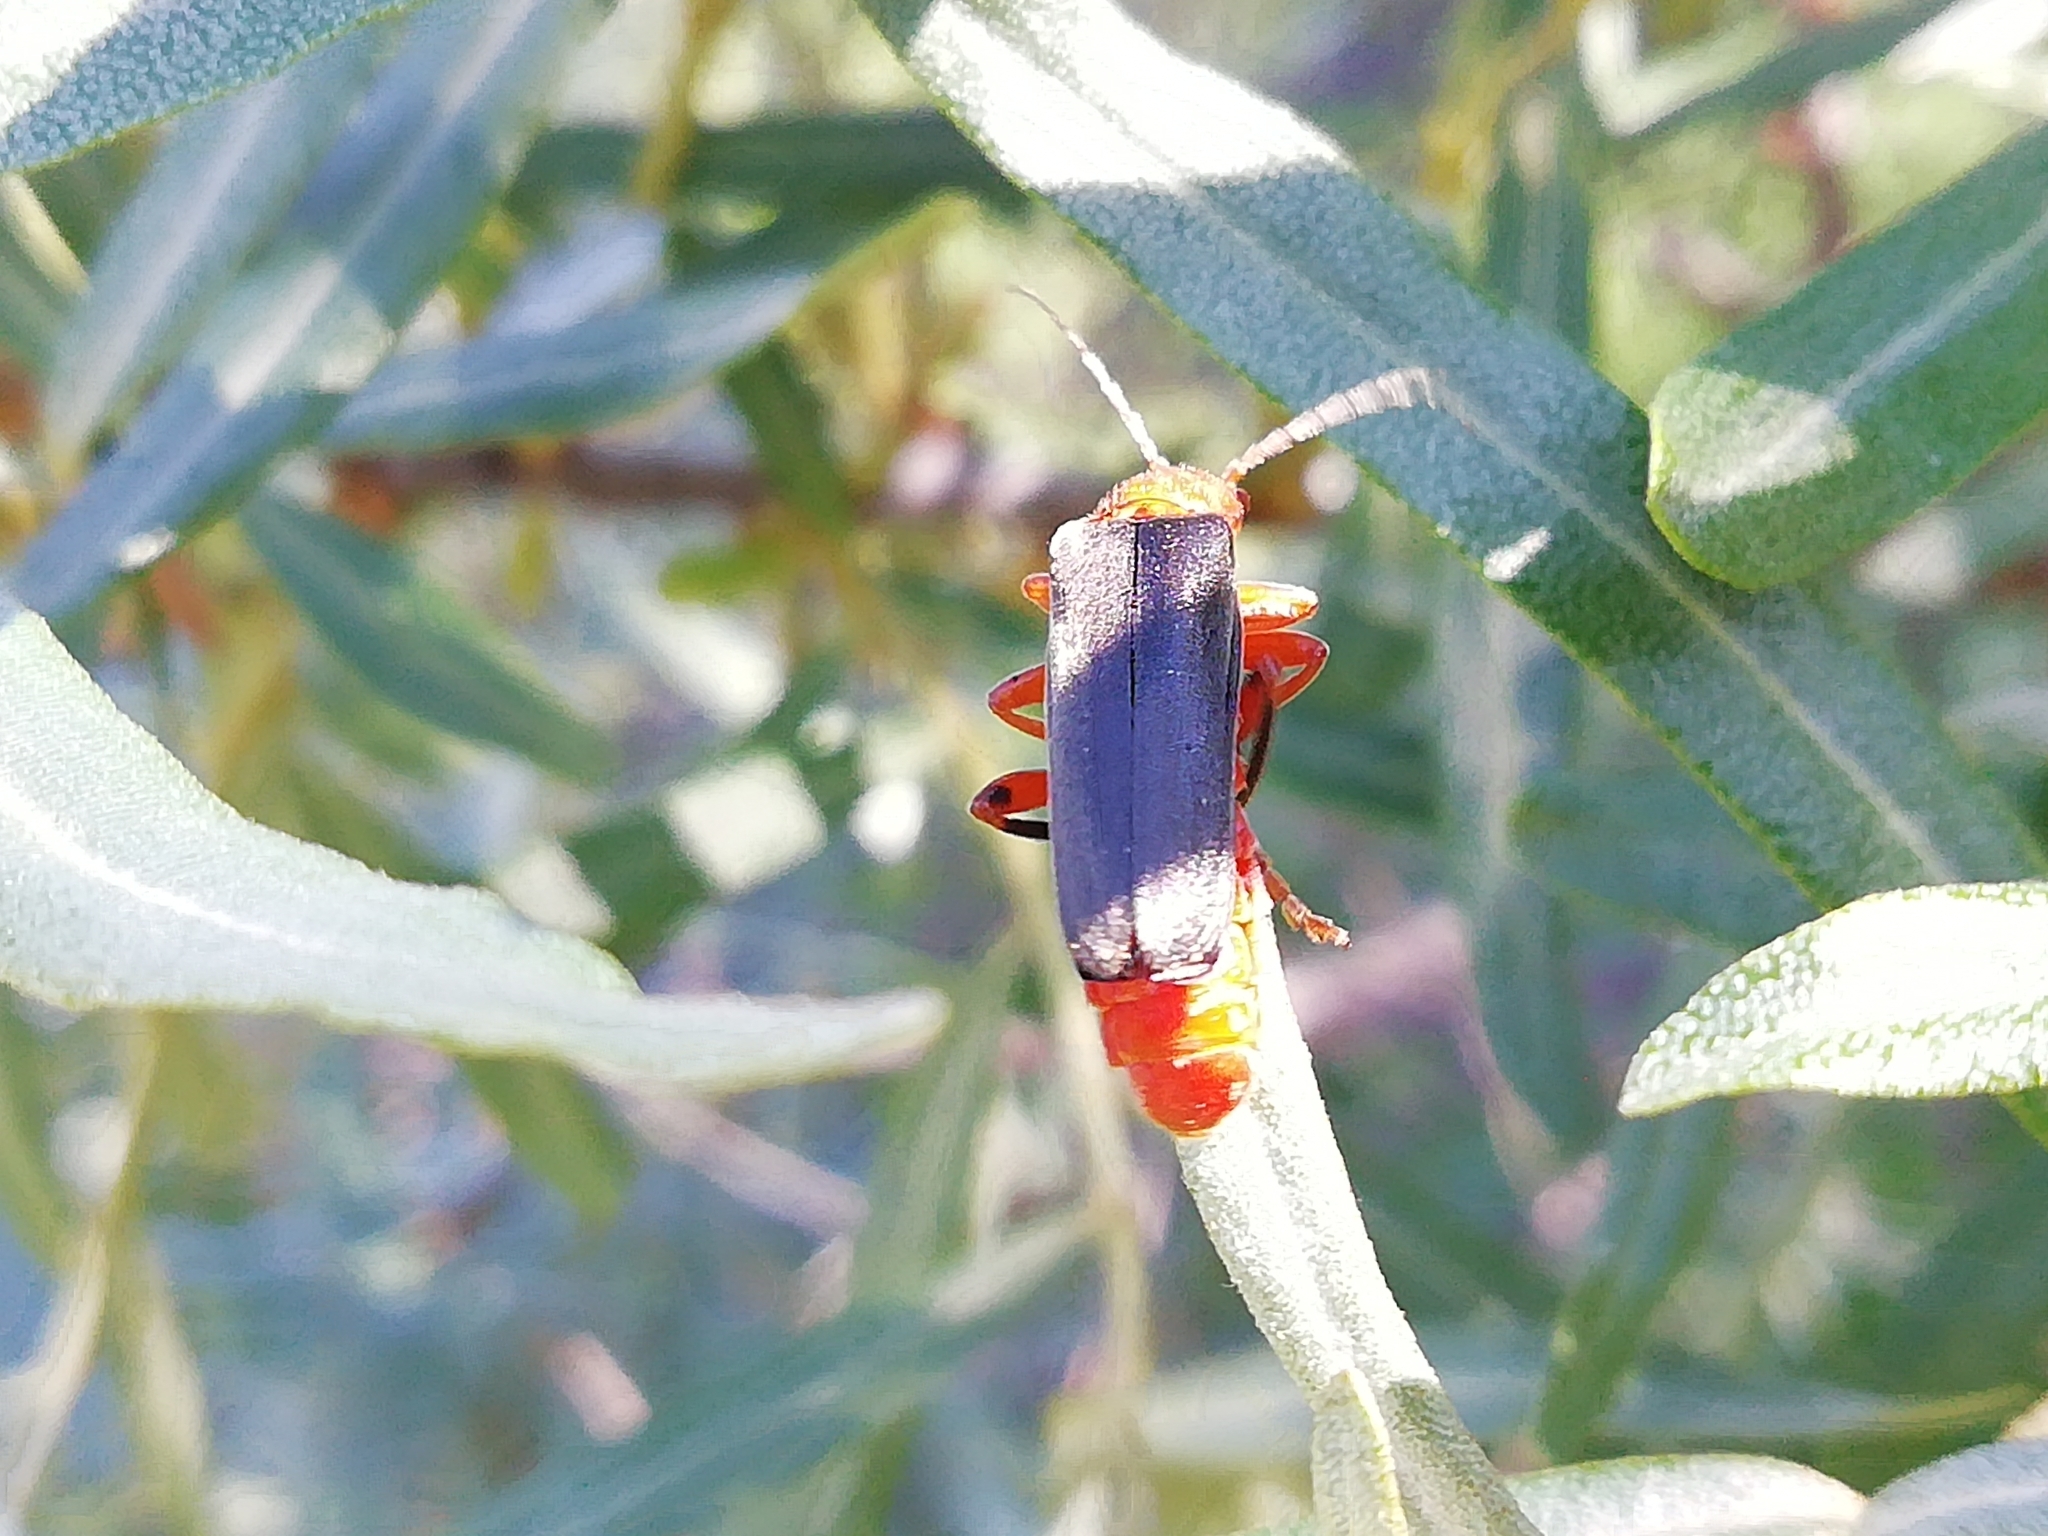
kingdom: Animalia
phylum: Arthropoda
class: Insecta
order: Coleoptera
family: Cantharidae
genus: Cantharis
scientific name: Cantharis livida
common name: Livid soldier beetle
